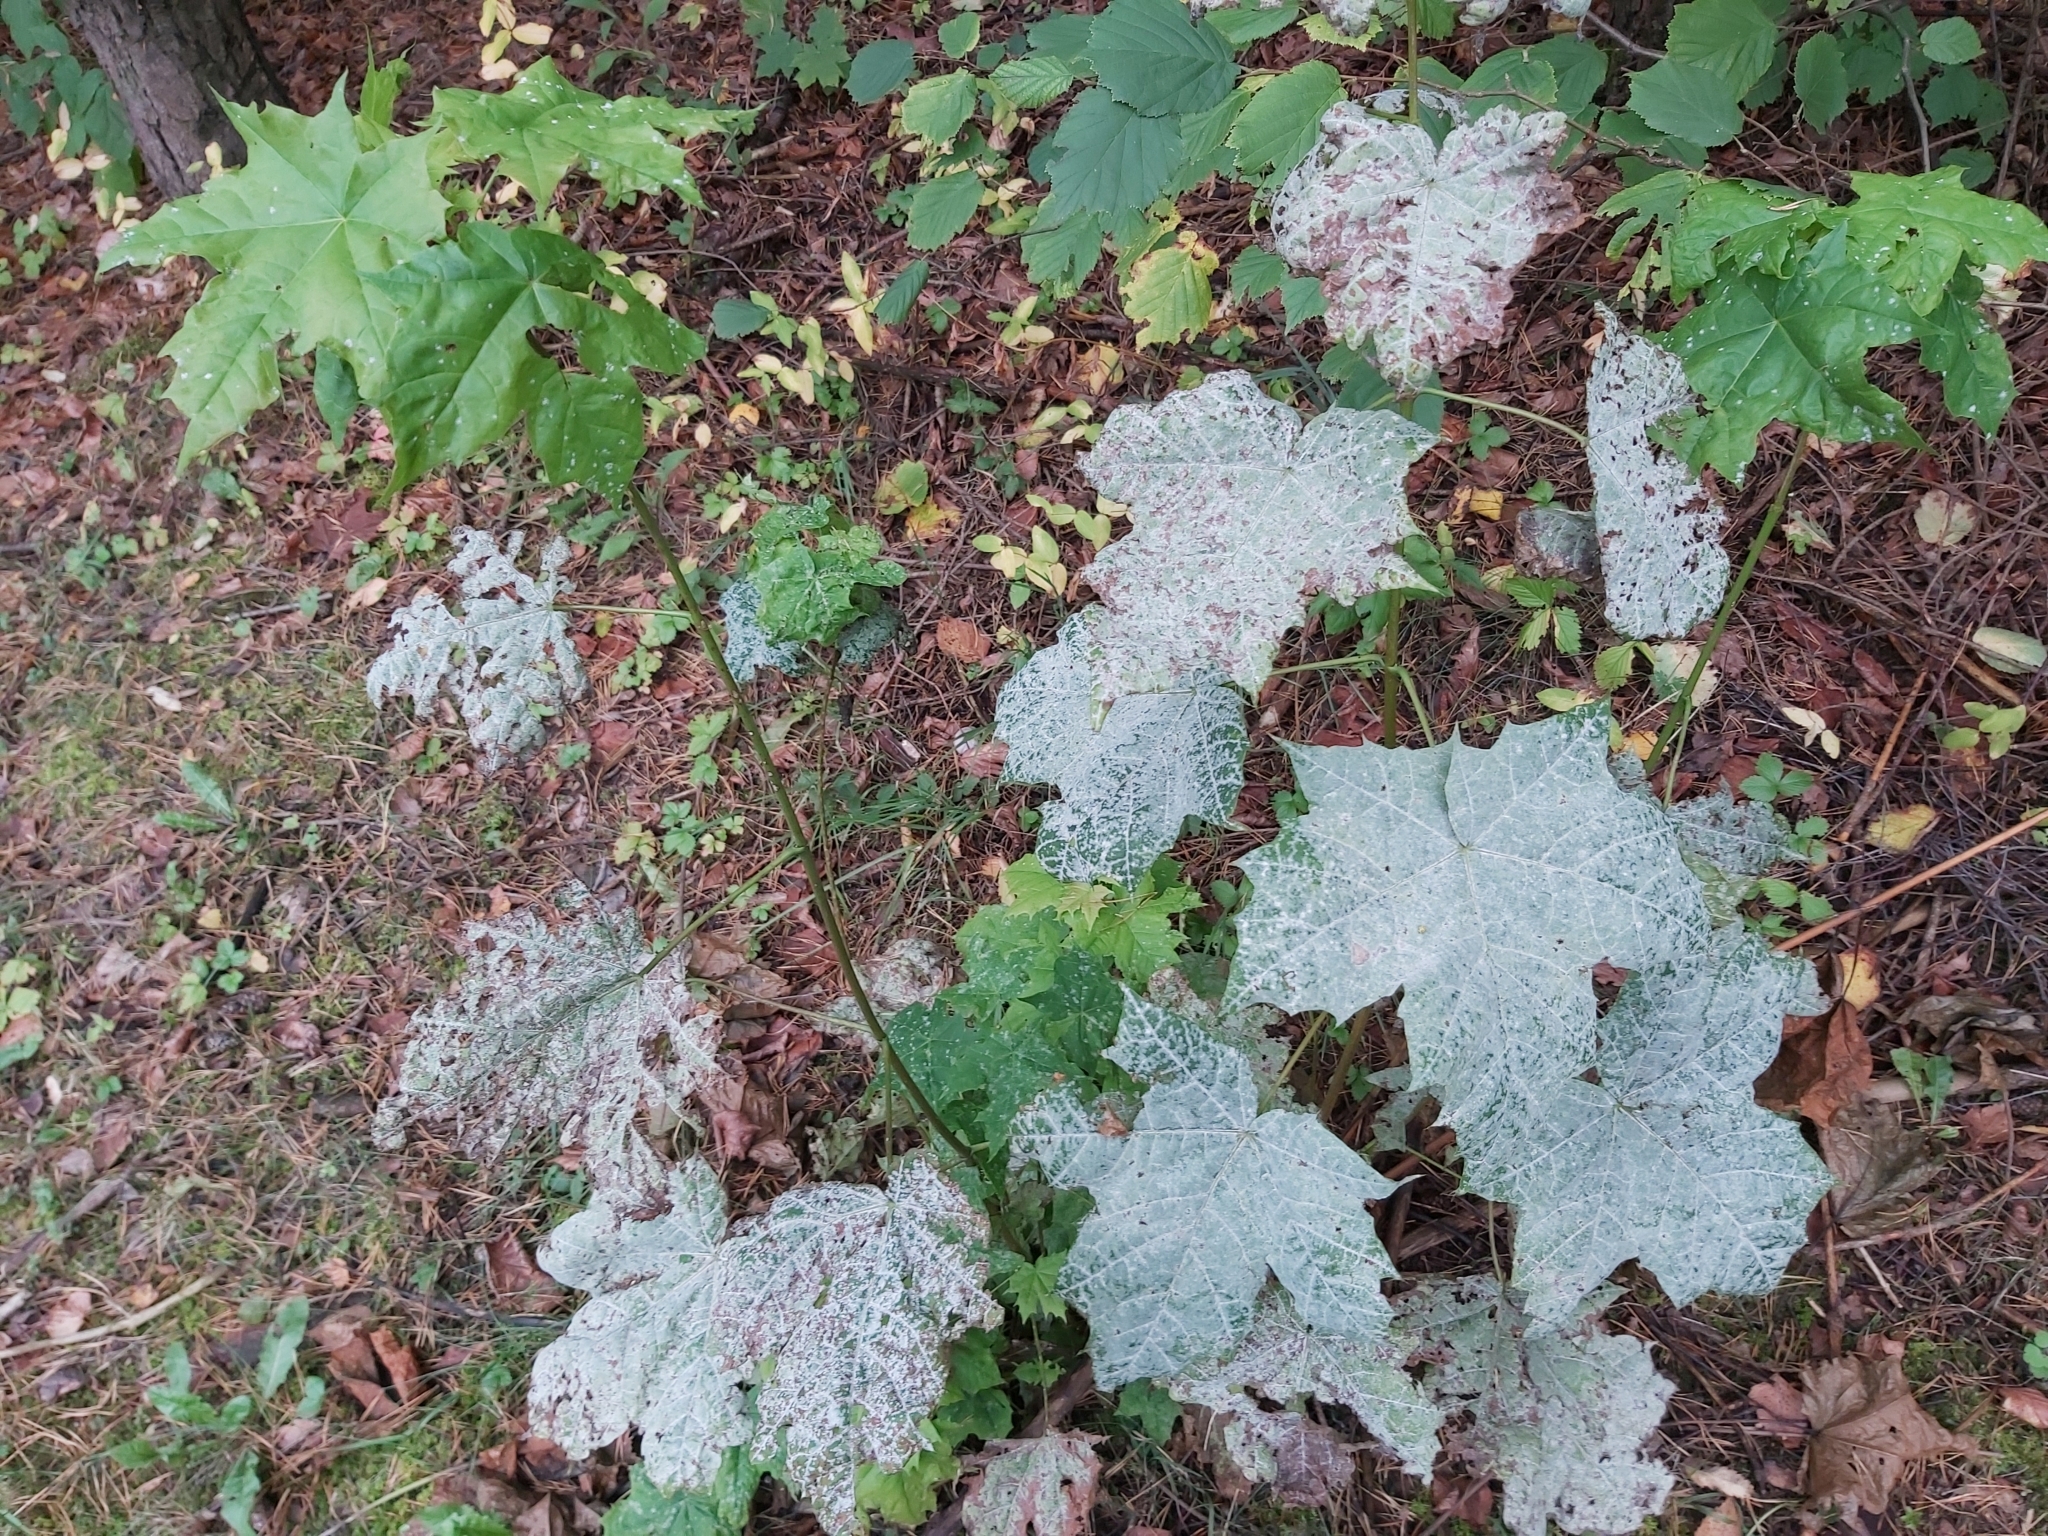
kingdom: Fungi
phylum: Ascomycota
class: Leotiomycetes
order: Helotiales
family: Erysiphaceae
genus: Sawadaea
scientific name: Sawadaea tulasnei
